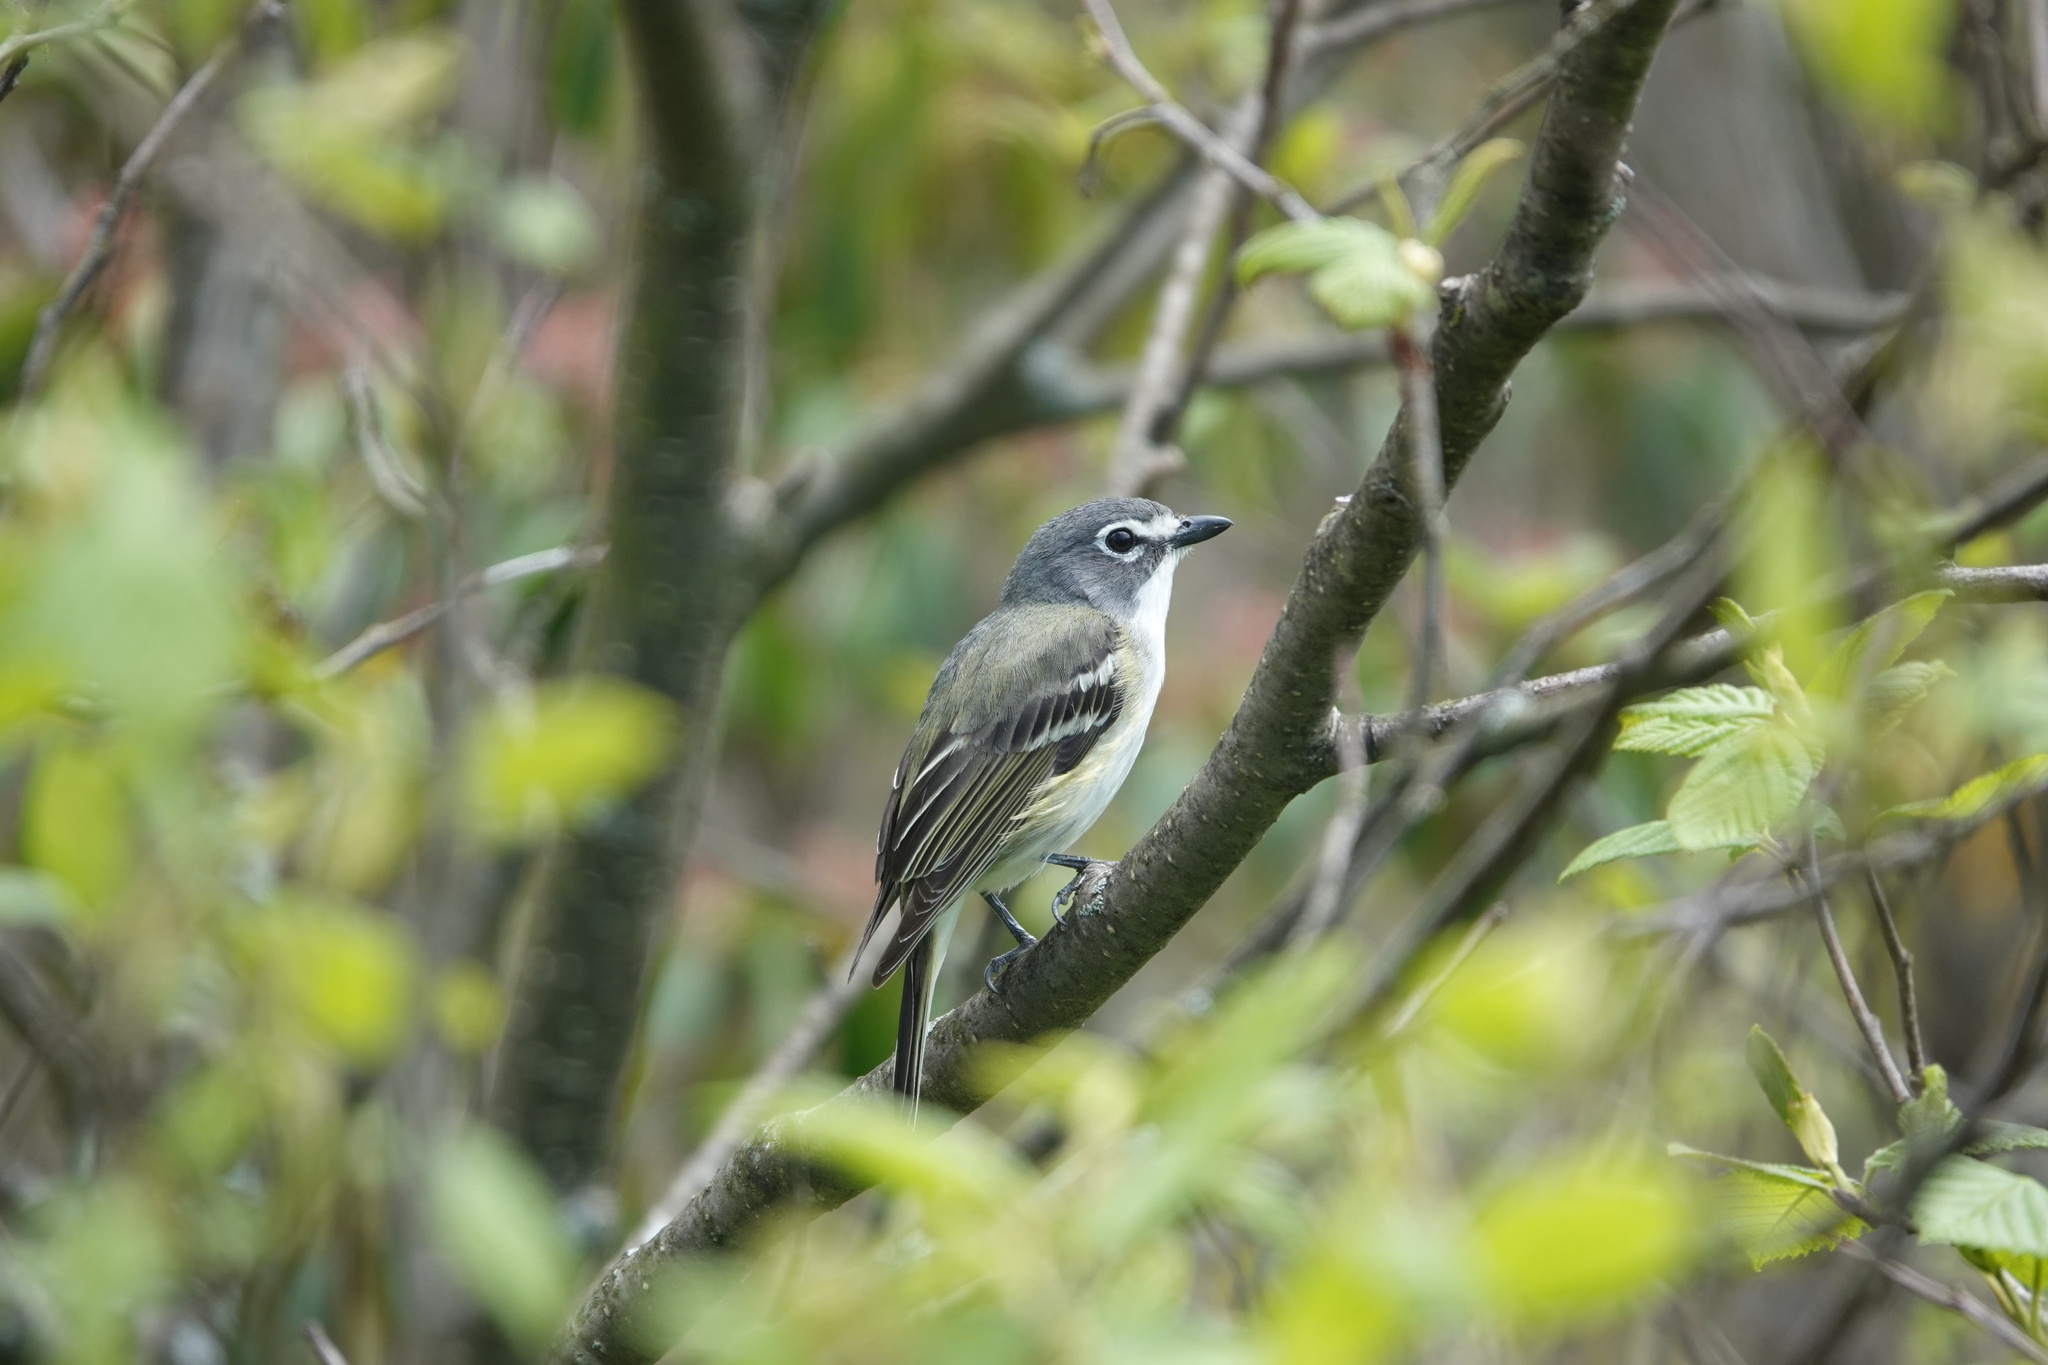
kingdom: Animalia
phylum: Chordata
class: Aves
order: Passeriformes
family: Vireonidae
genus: Vireo
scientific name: Vireo solitarius
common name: Blue-headed vireo
